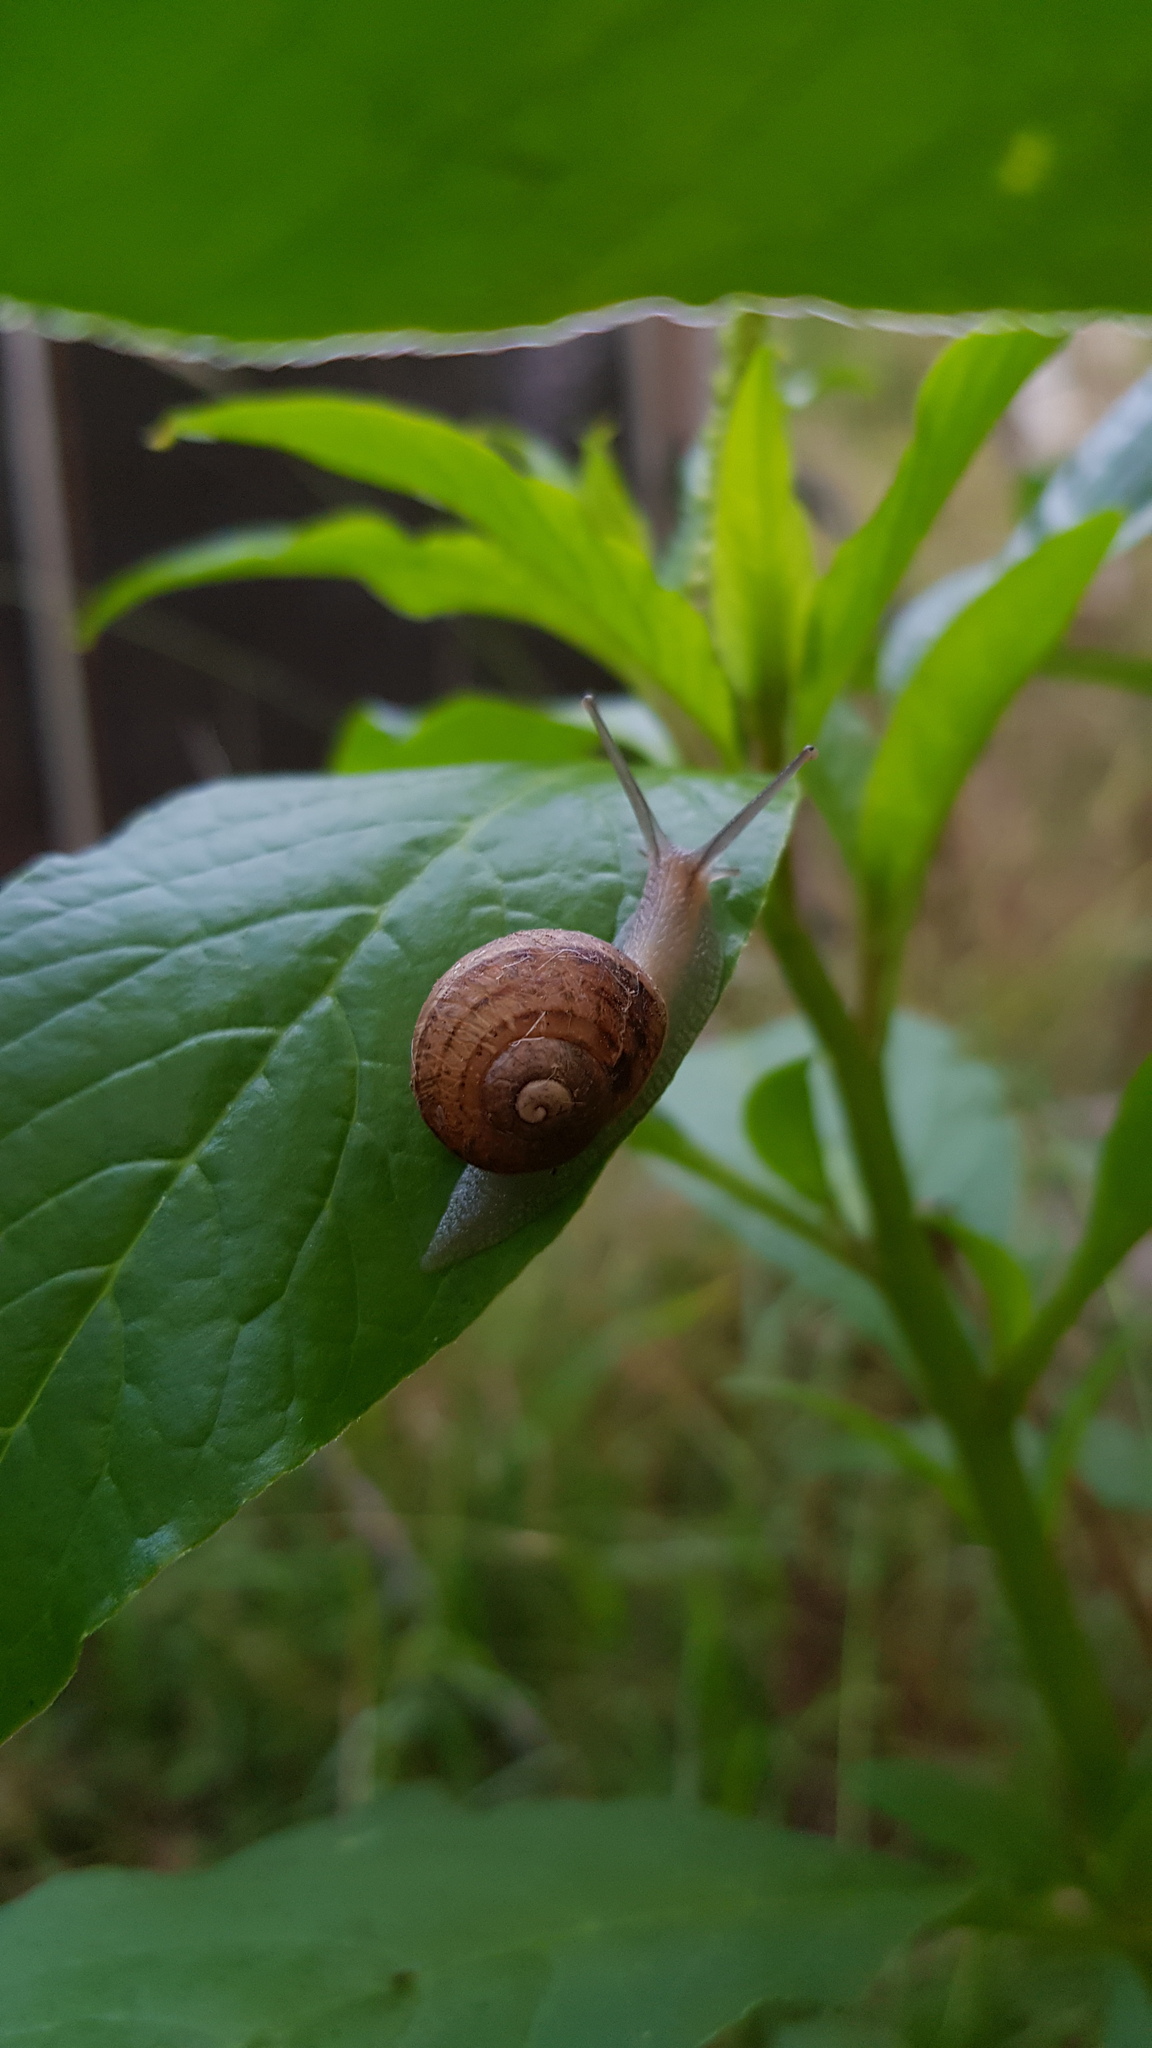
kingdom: Animalia
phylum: Mollusca
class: Gastropoda
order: Stylommatophora
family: Helicidae
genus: Cornu
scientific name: Cornu aspersum
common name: Brown garden snail
